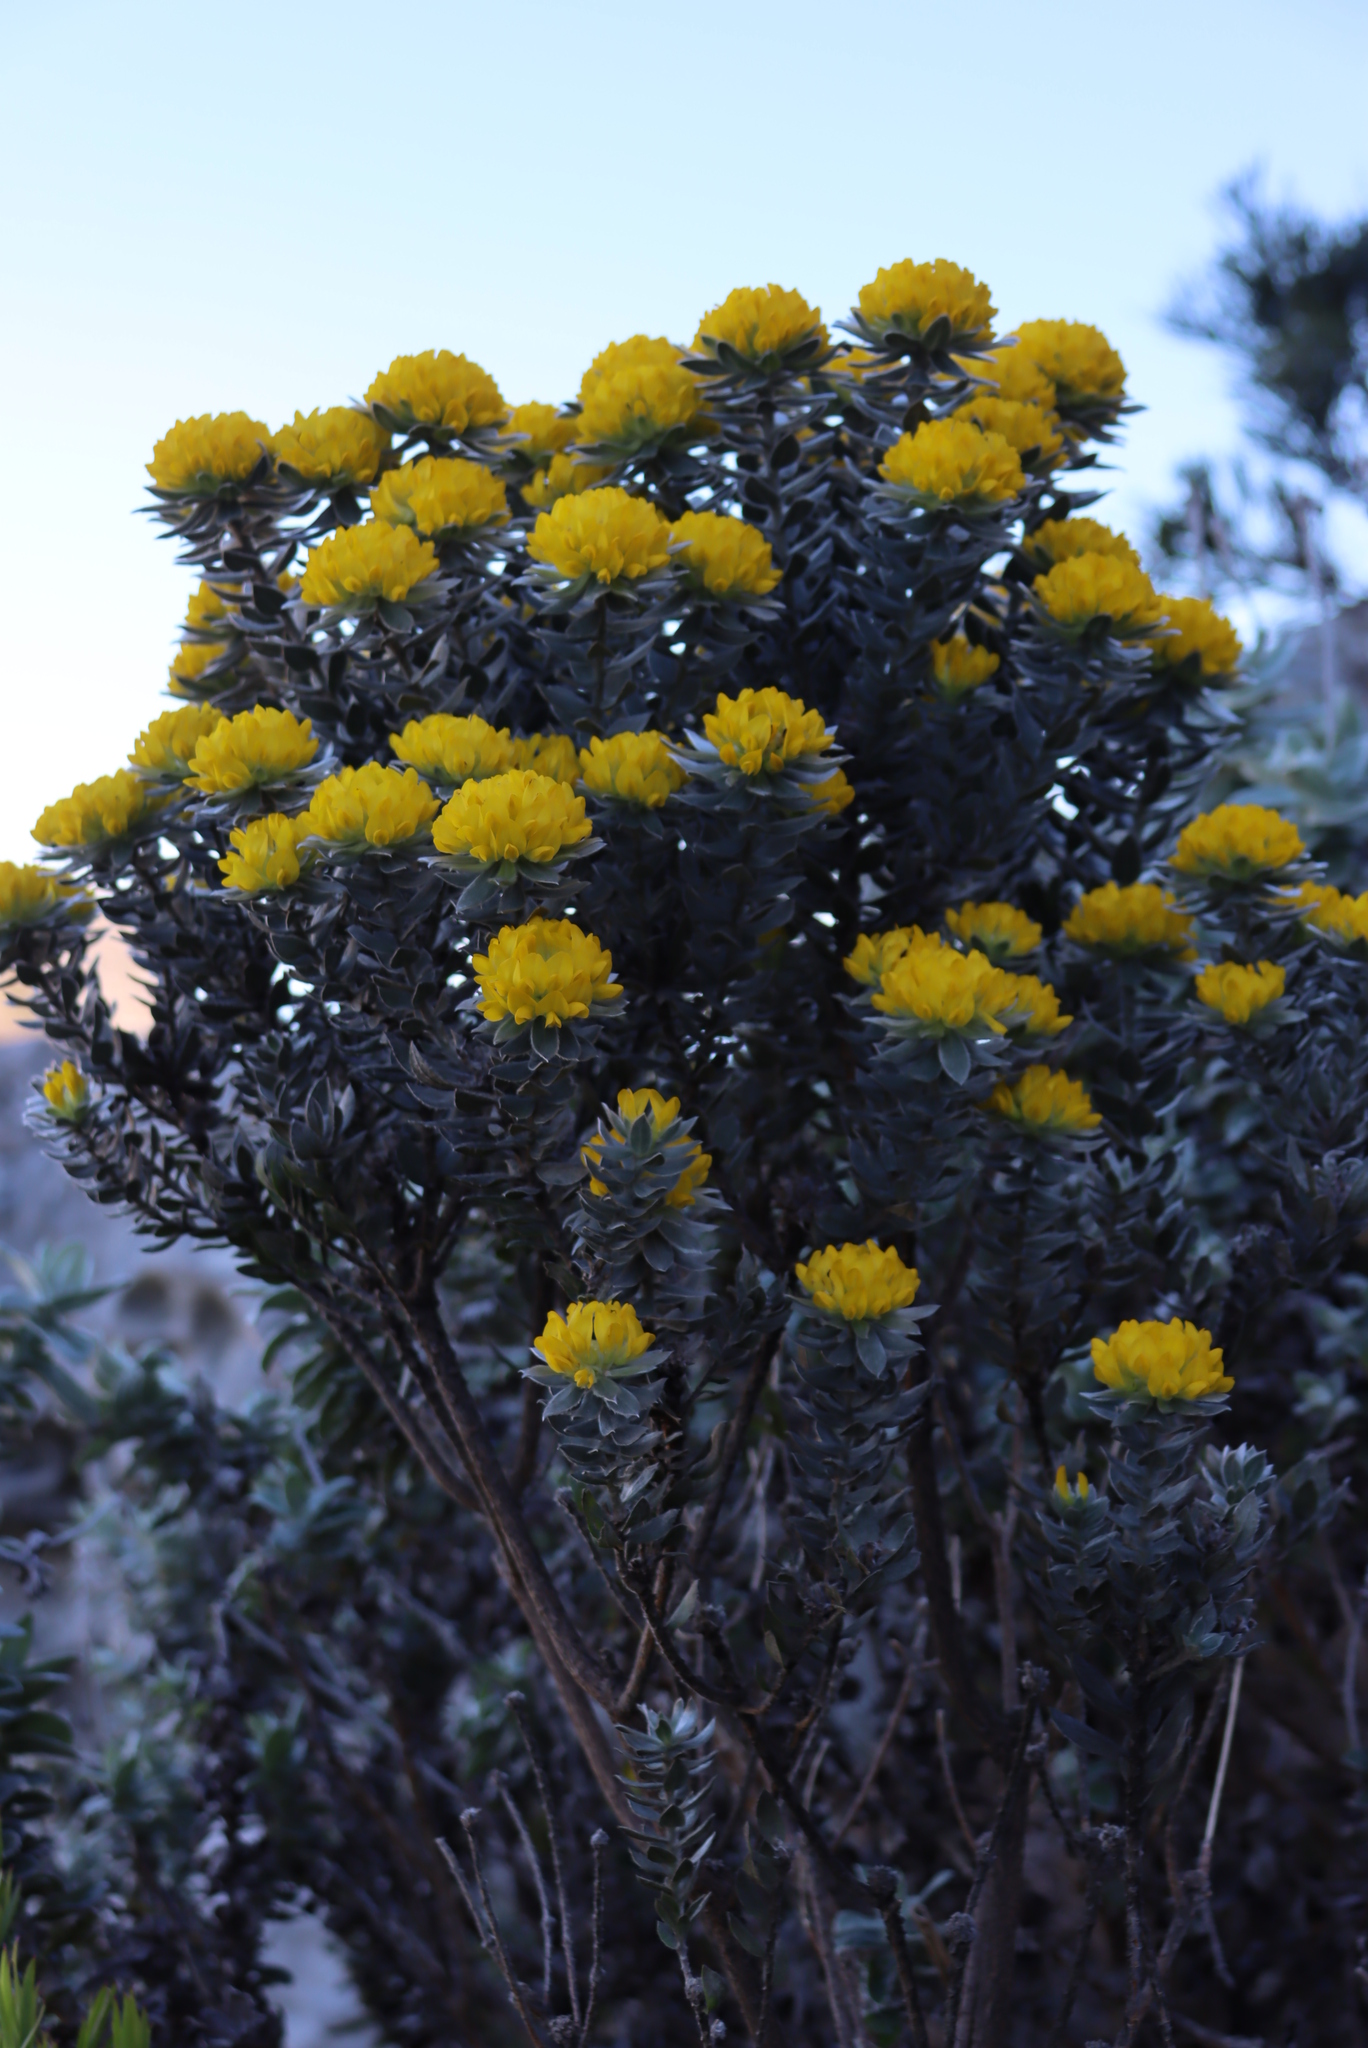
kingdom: Plantae
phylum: Tracheophyta
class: Magnoliopsida
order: Fabales
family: Fabaceae
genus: Xiphotheca
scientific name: Xiphotheca fruticosa
